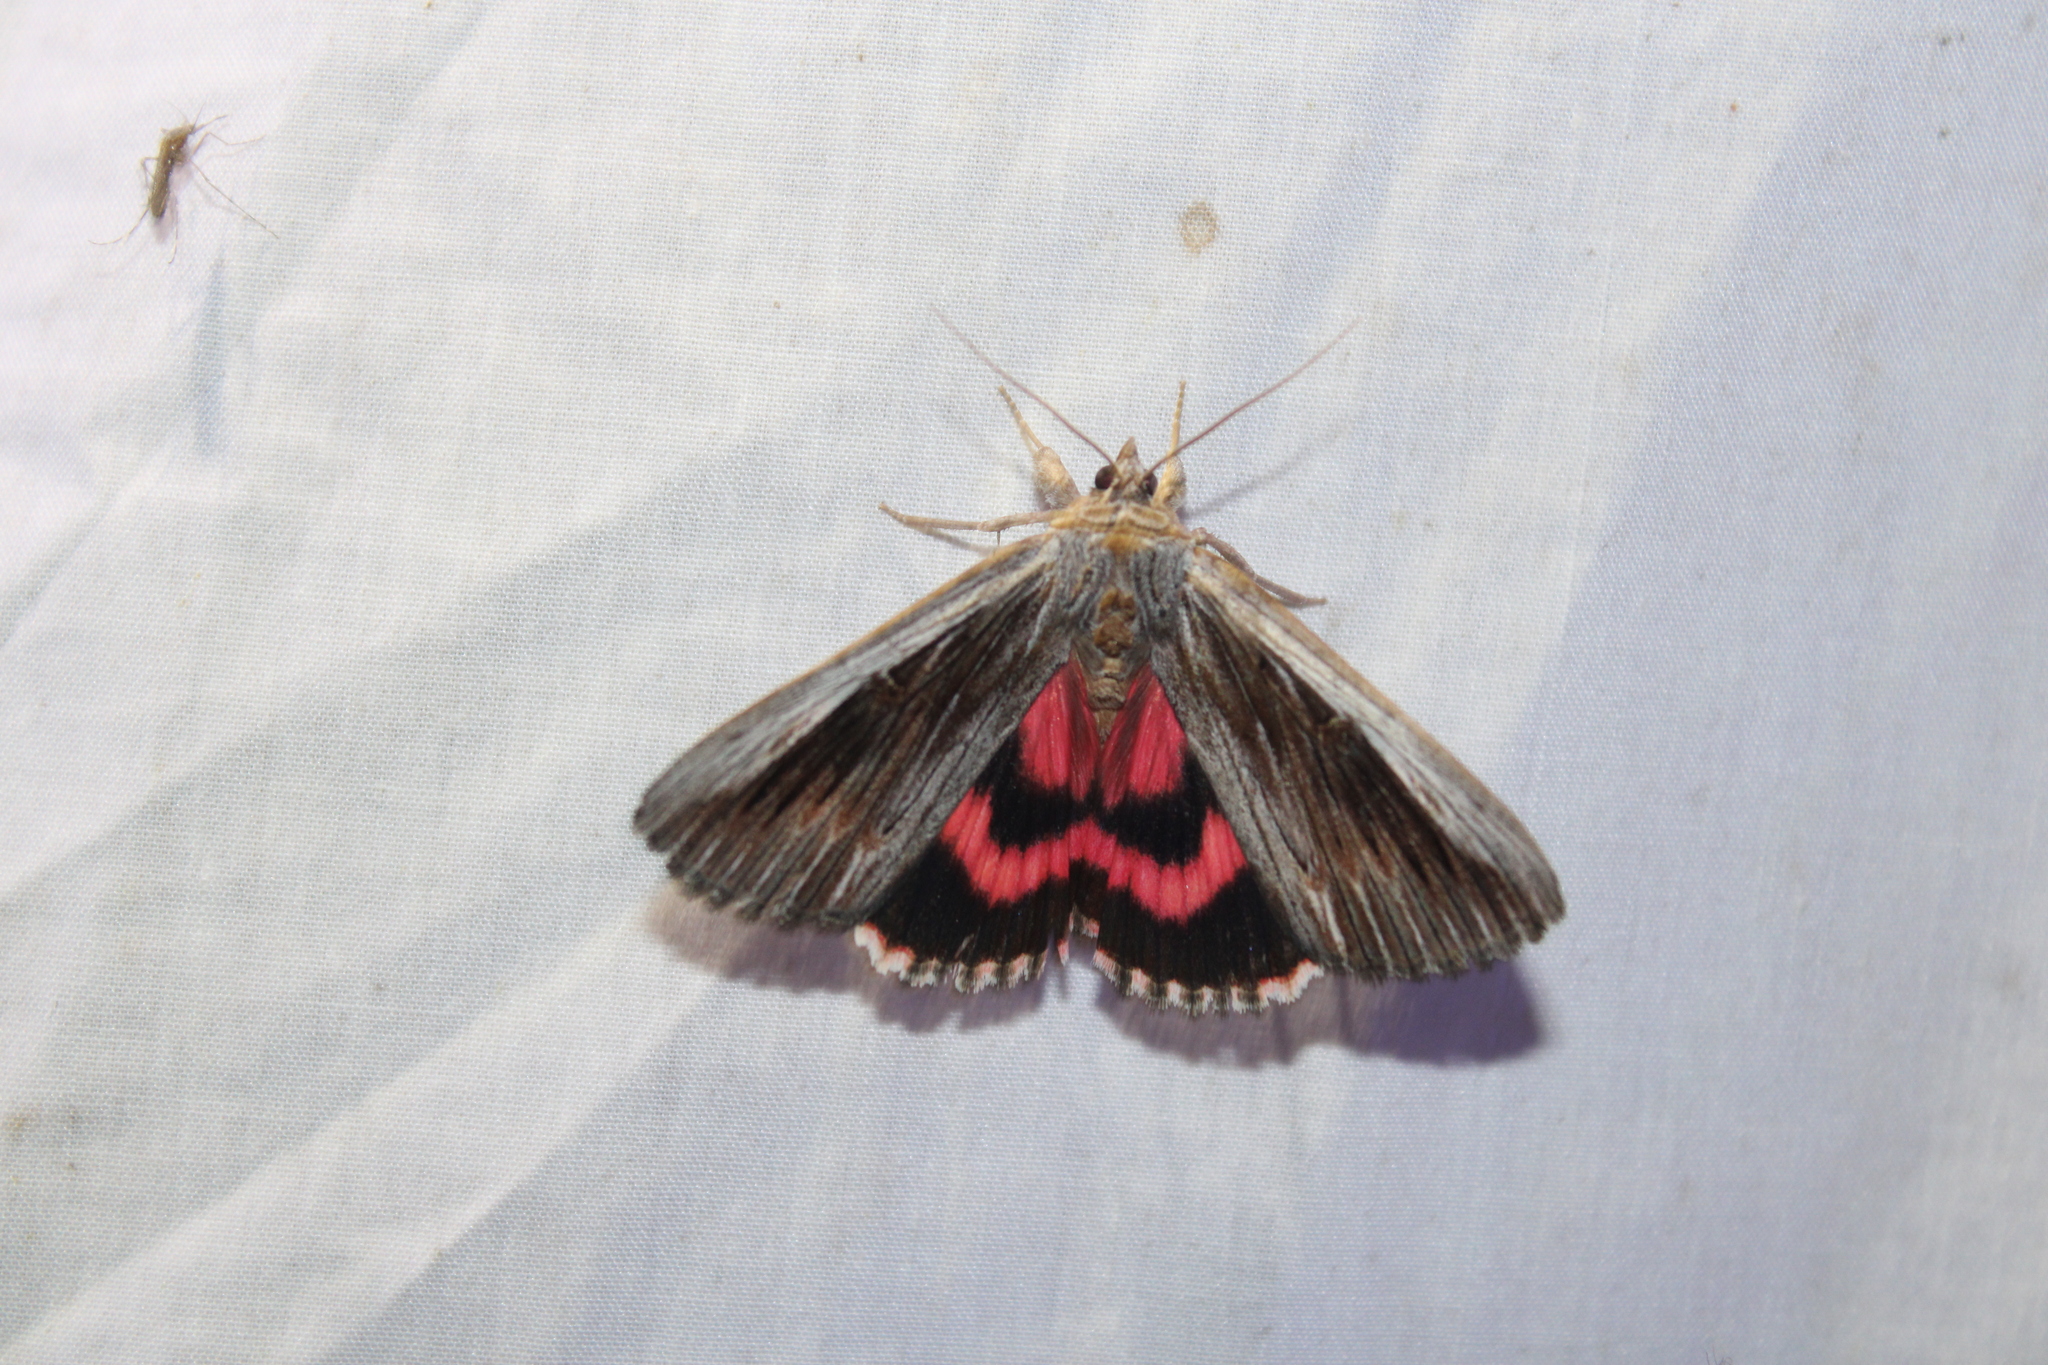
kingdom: Animalia
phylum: Arthropoda
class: Insecta
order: Lepidoptera
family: Erebidae
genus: Catocala
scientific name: Catocala herodias
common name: Pine barrens underwing
